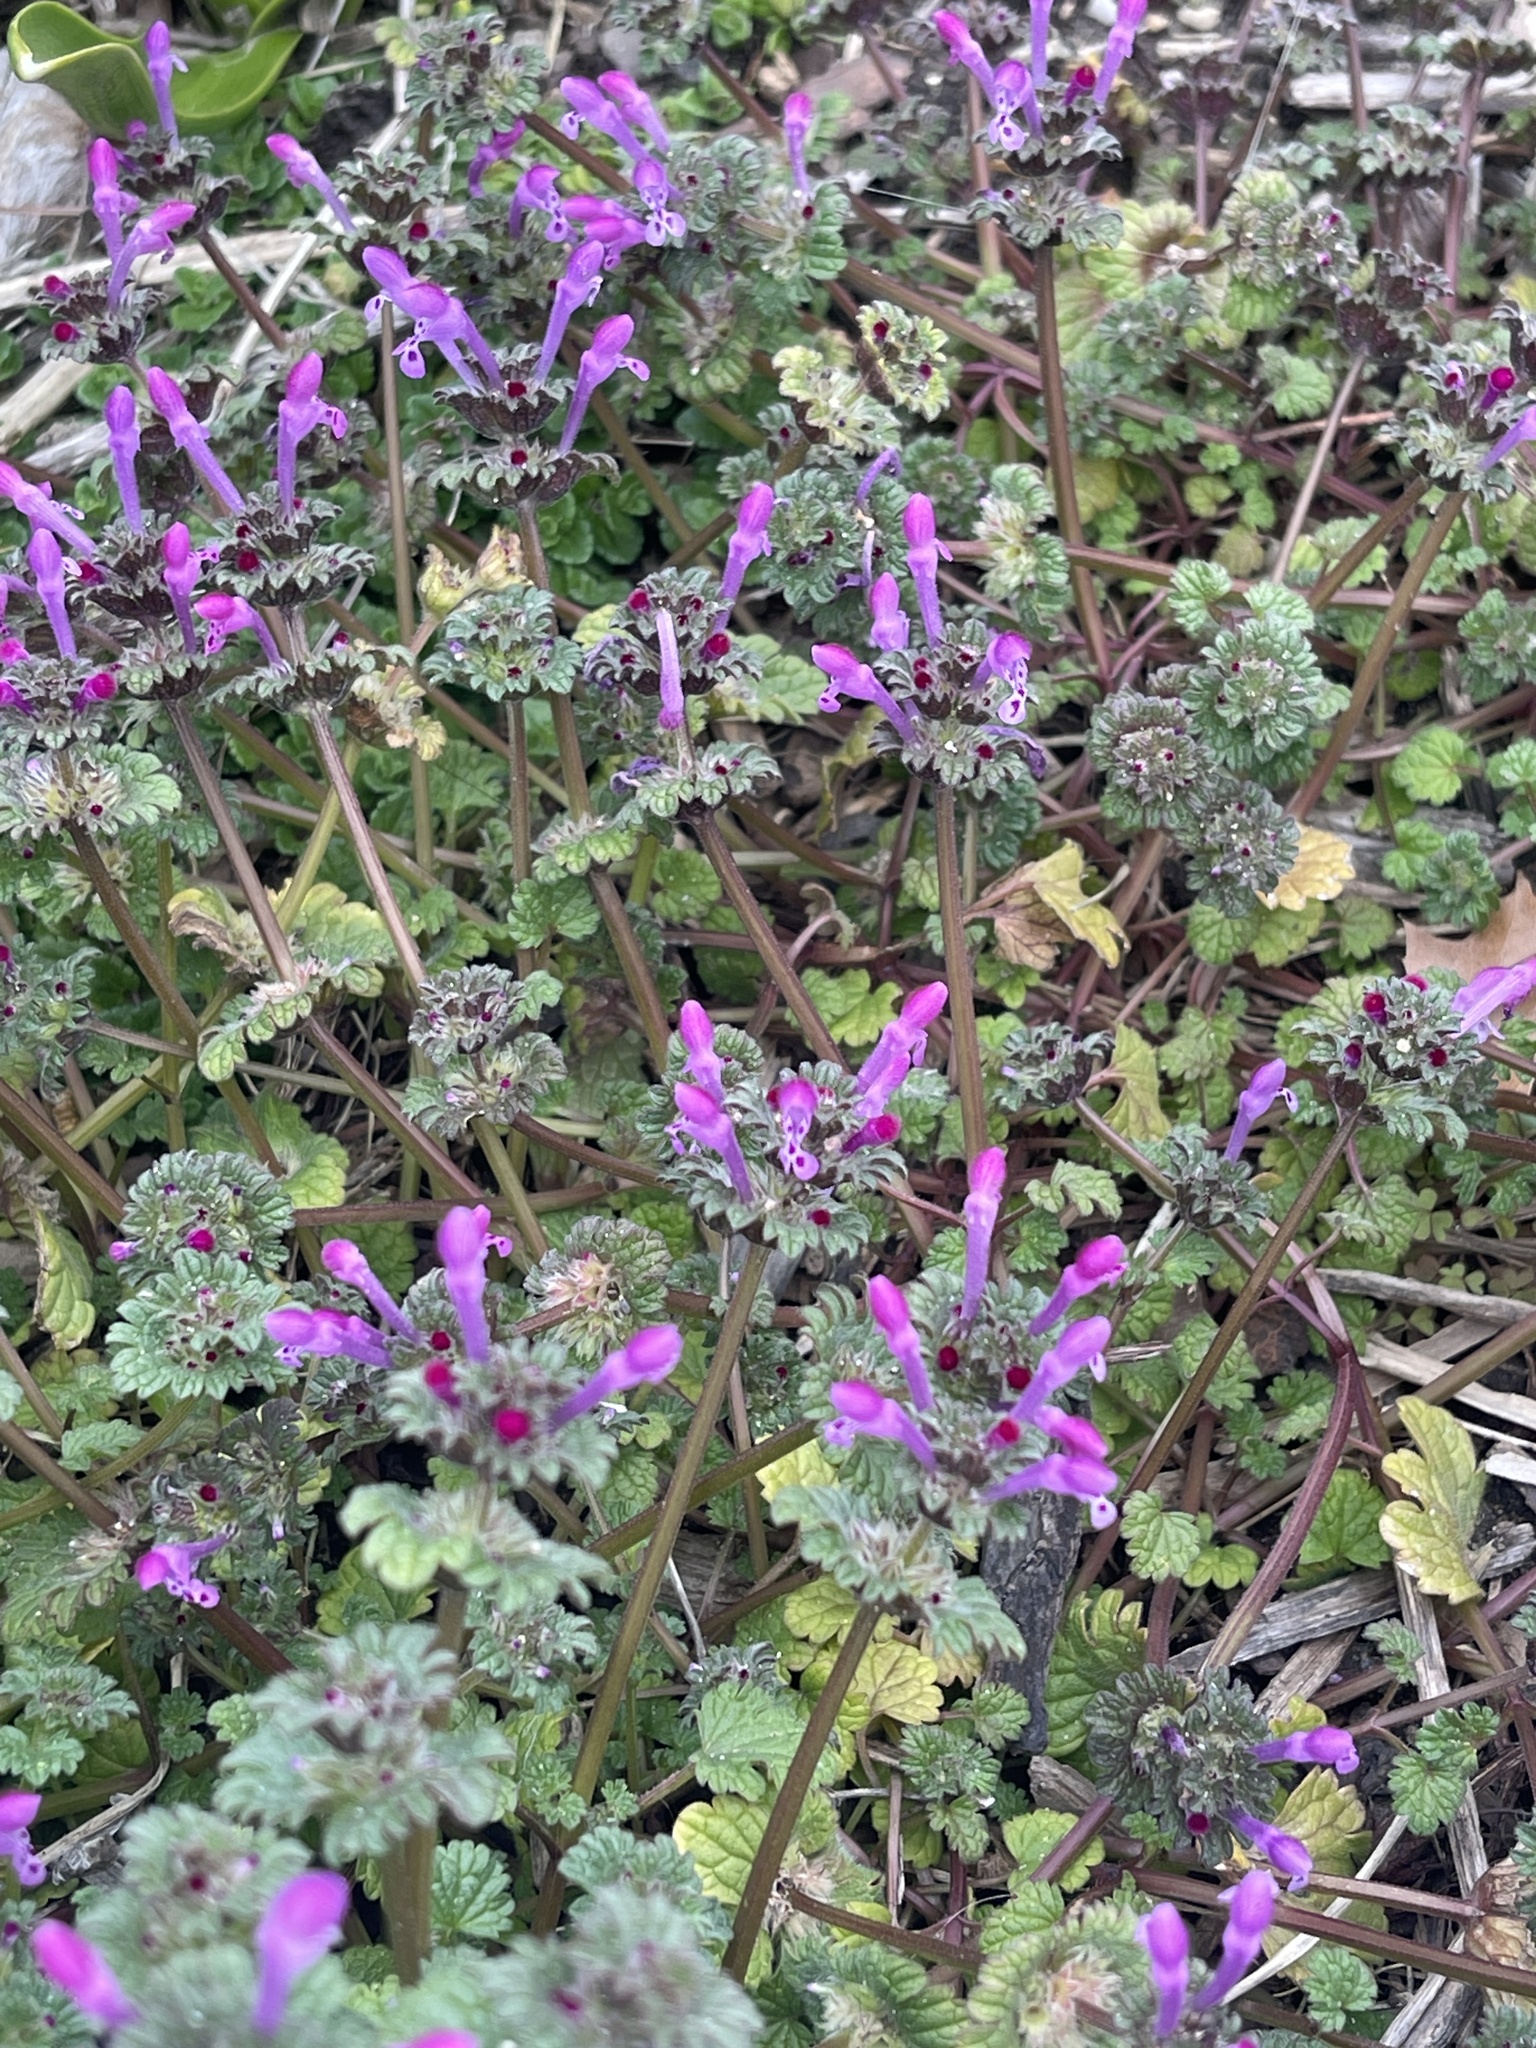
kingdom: Plantae
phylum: Tracheophyta
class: Magnoliopsida
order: Lamiales
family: Lamiaceae
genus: Lamium
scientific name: Lamium amplexicaule
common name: Henbit dead-nettle
